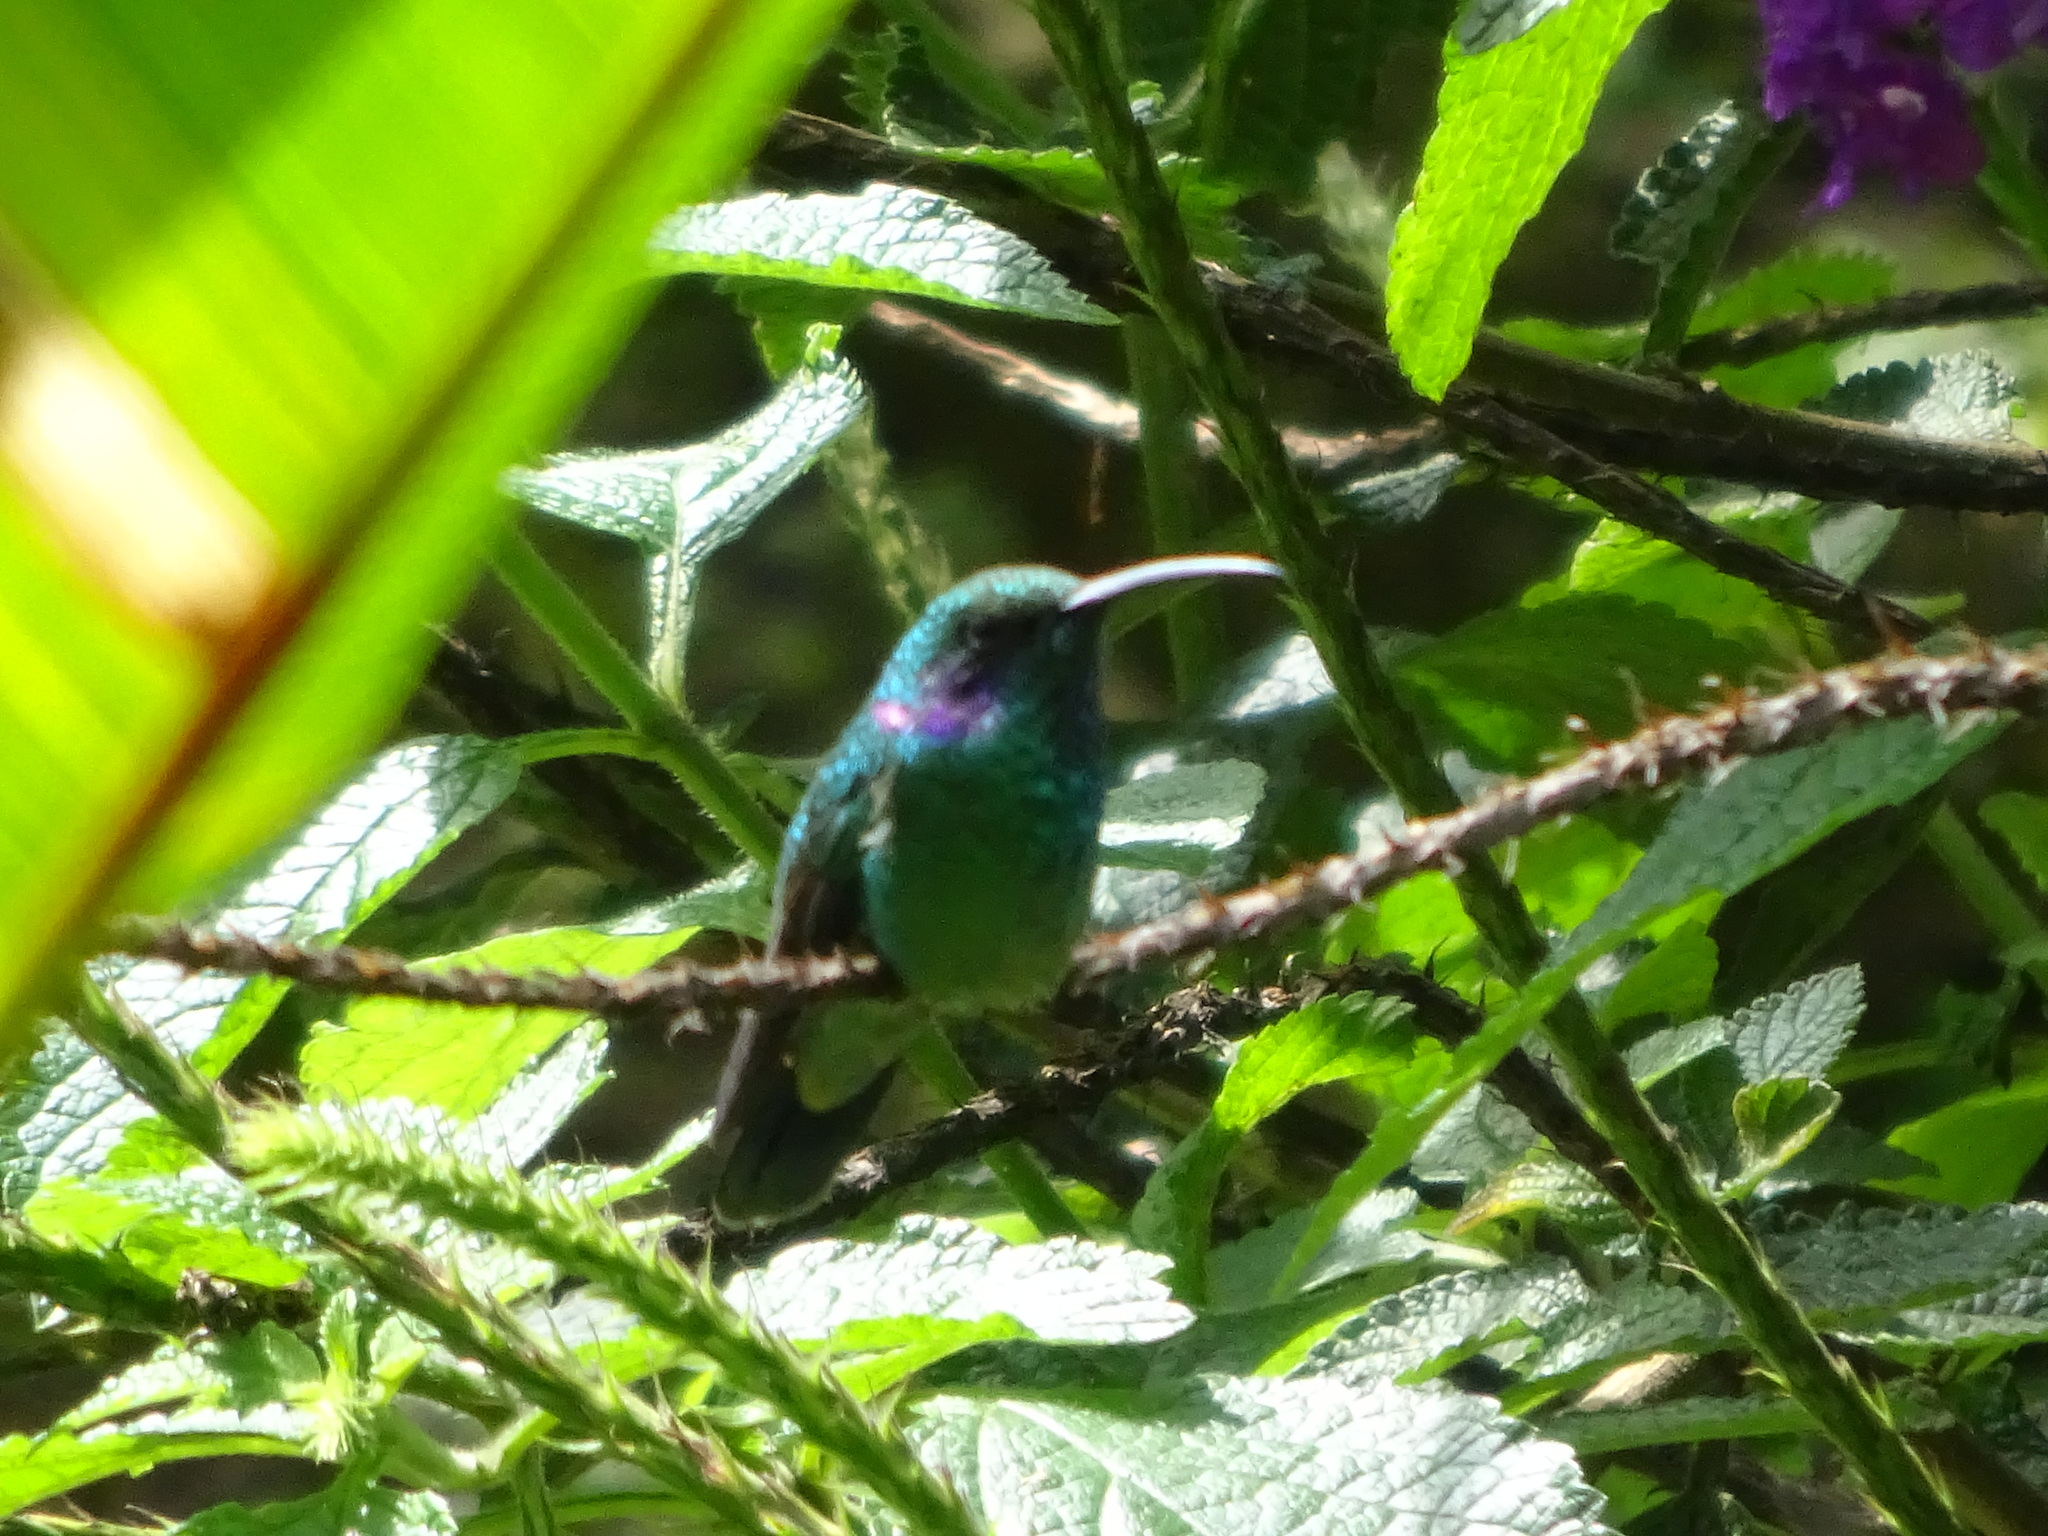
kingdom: Animalia
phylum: Chordata
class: Aves
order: Apodiformes
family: Trochilidae
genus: Colibri
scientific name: Colibri cyanotus
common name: Lesser violetear
